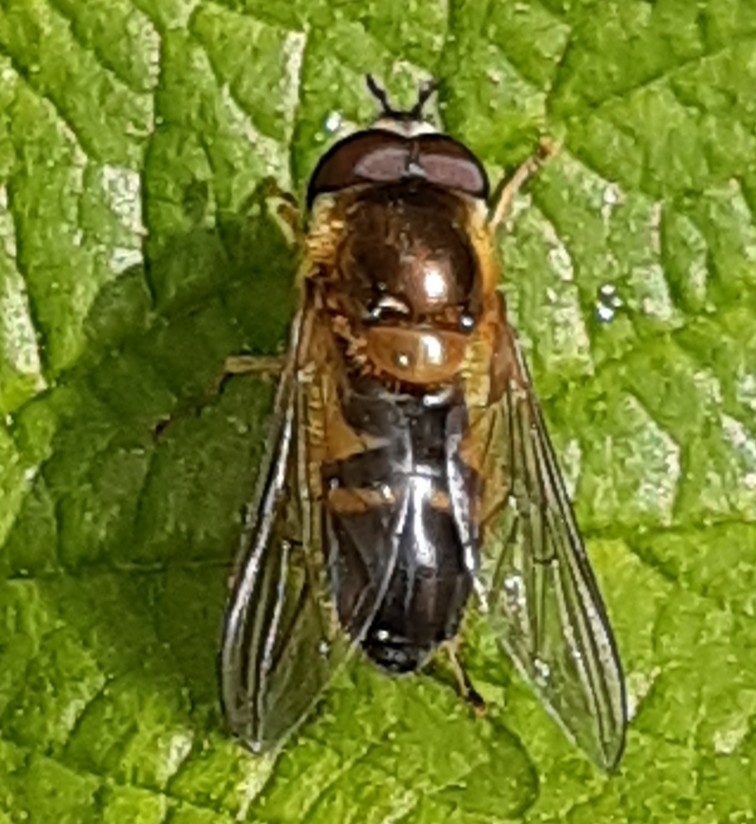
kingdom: Animalia
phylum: Arthropoda
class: Insecta
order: Diptera
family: Syrphidae
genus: Epistrophe
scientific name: Epistrophe eligans
